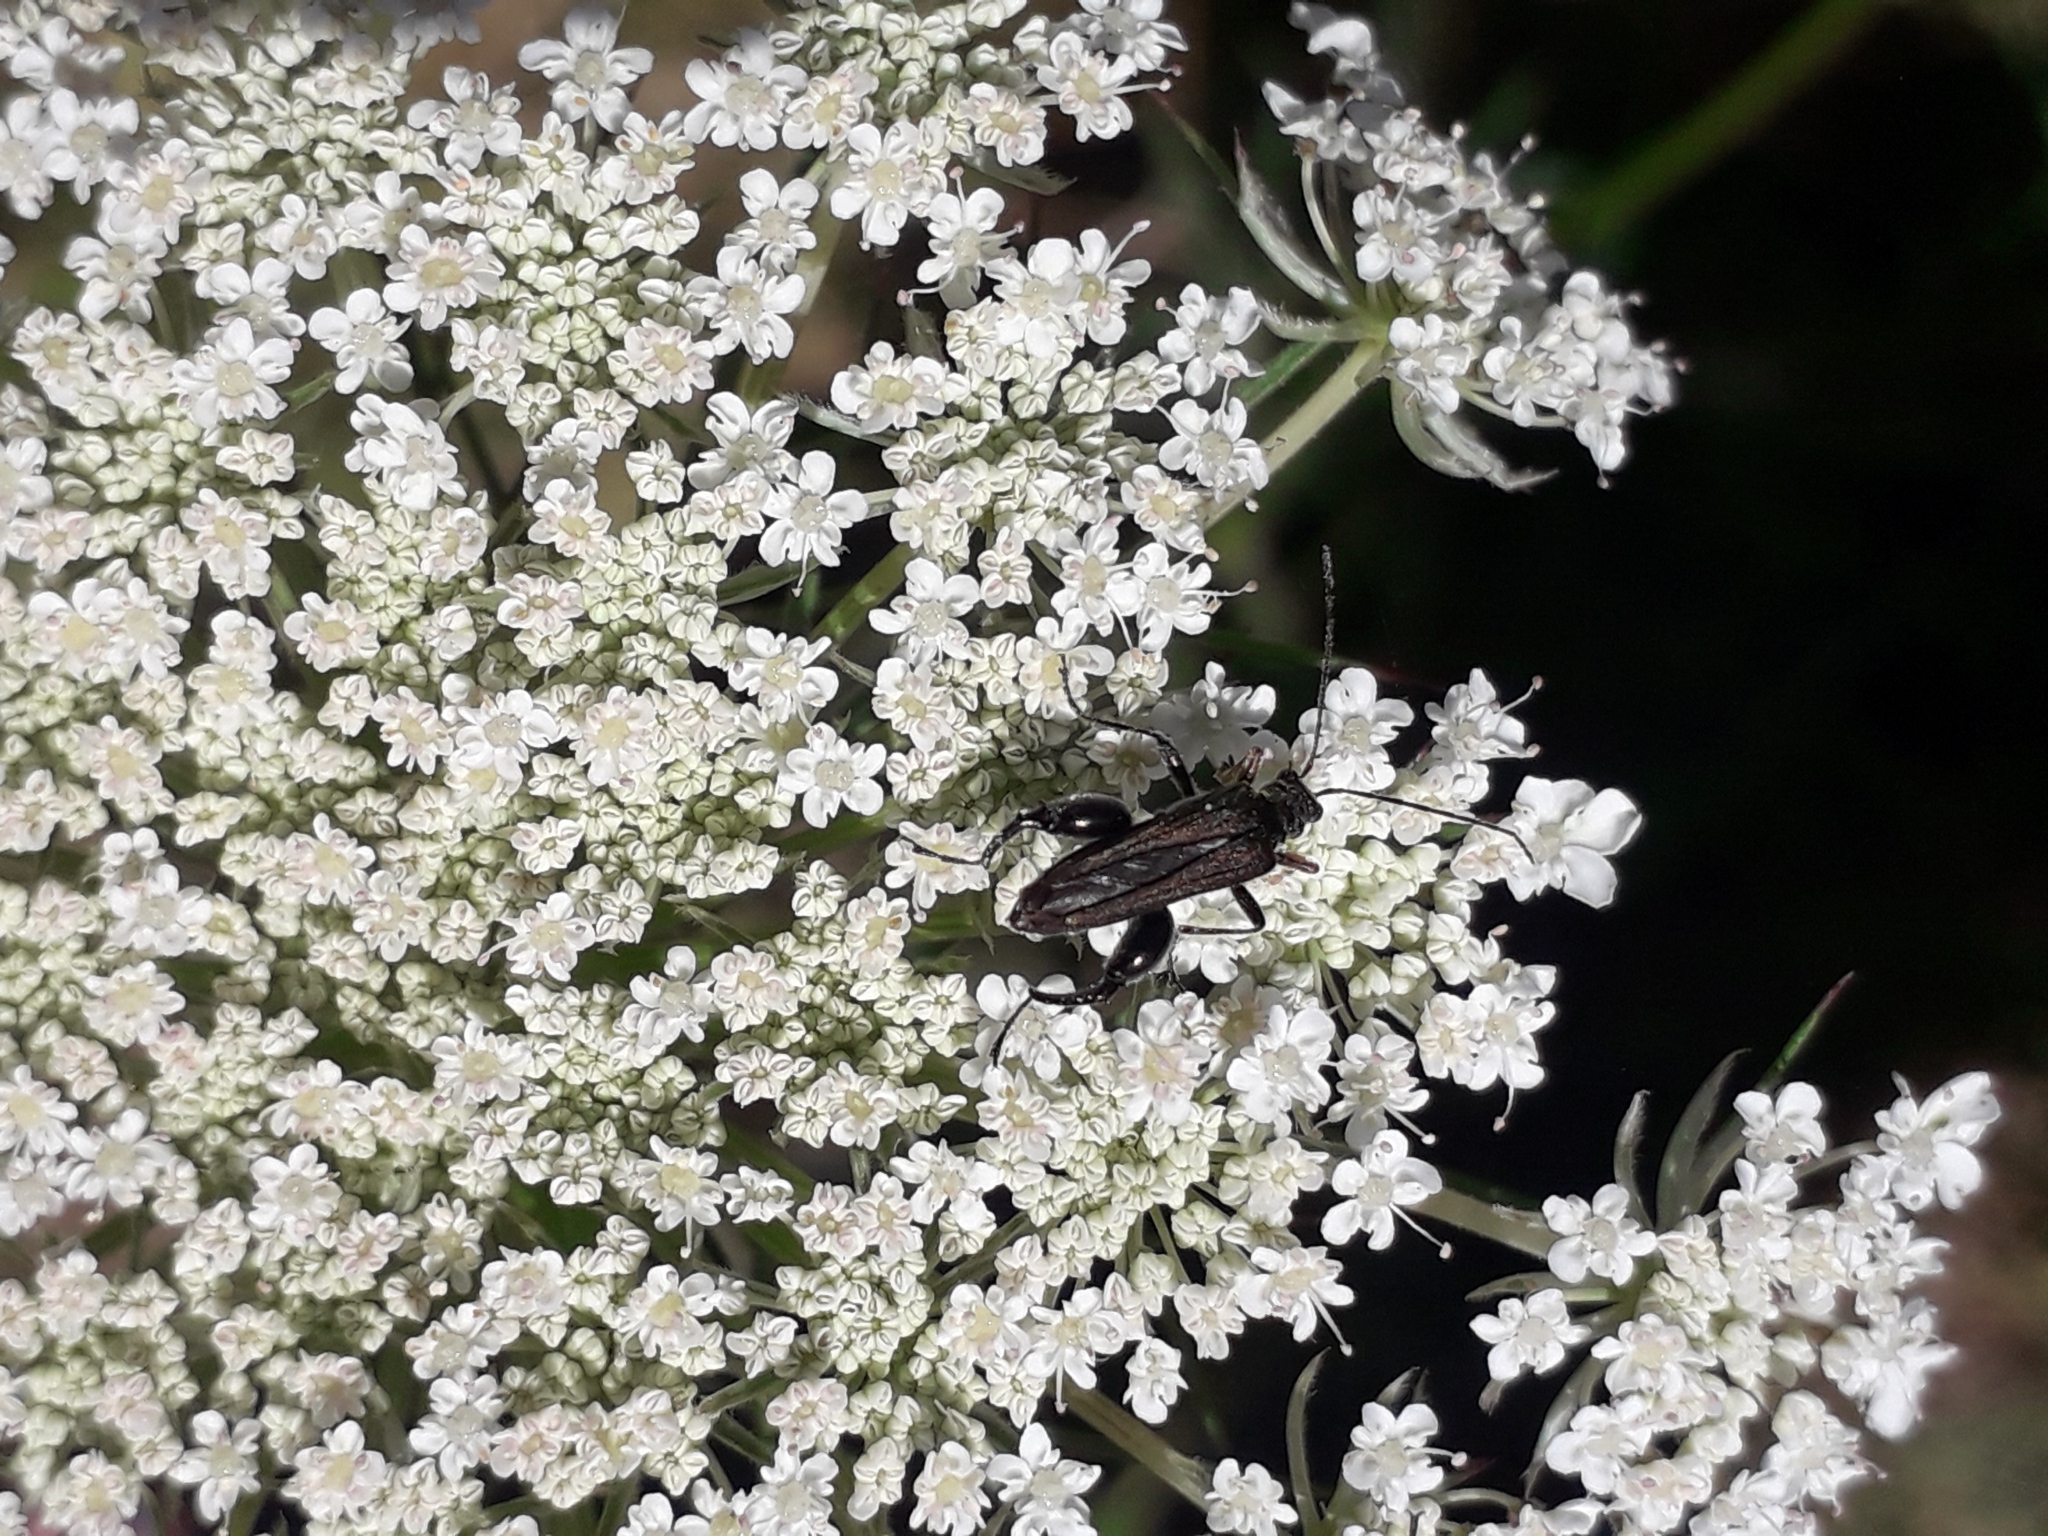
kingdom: Animalia
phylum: Arthropoda
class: Insecta
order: Coleoptera
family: Oedemeridae
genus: Oedemera
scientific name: Oedemera flavipes
